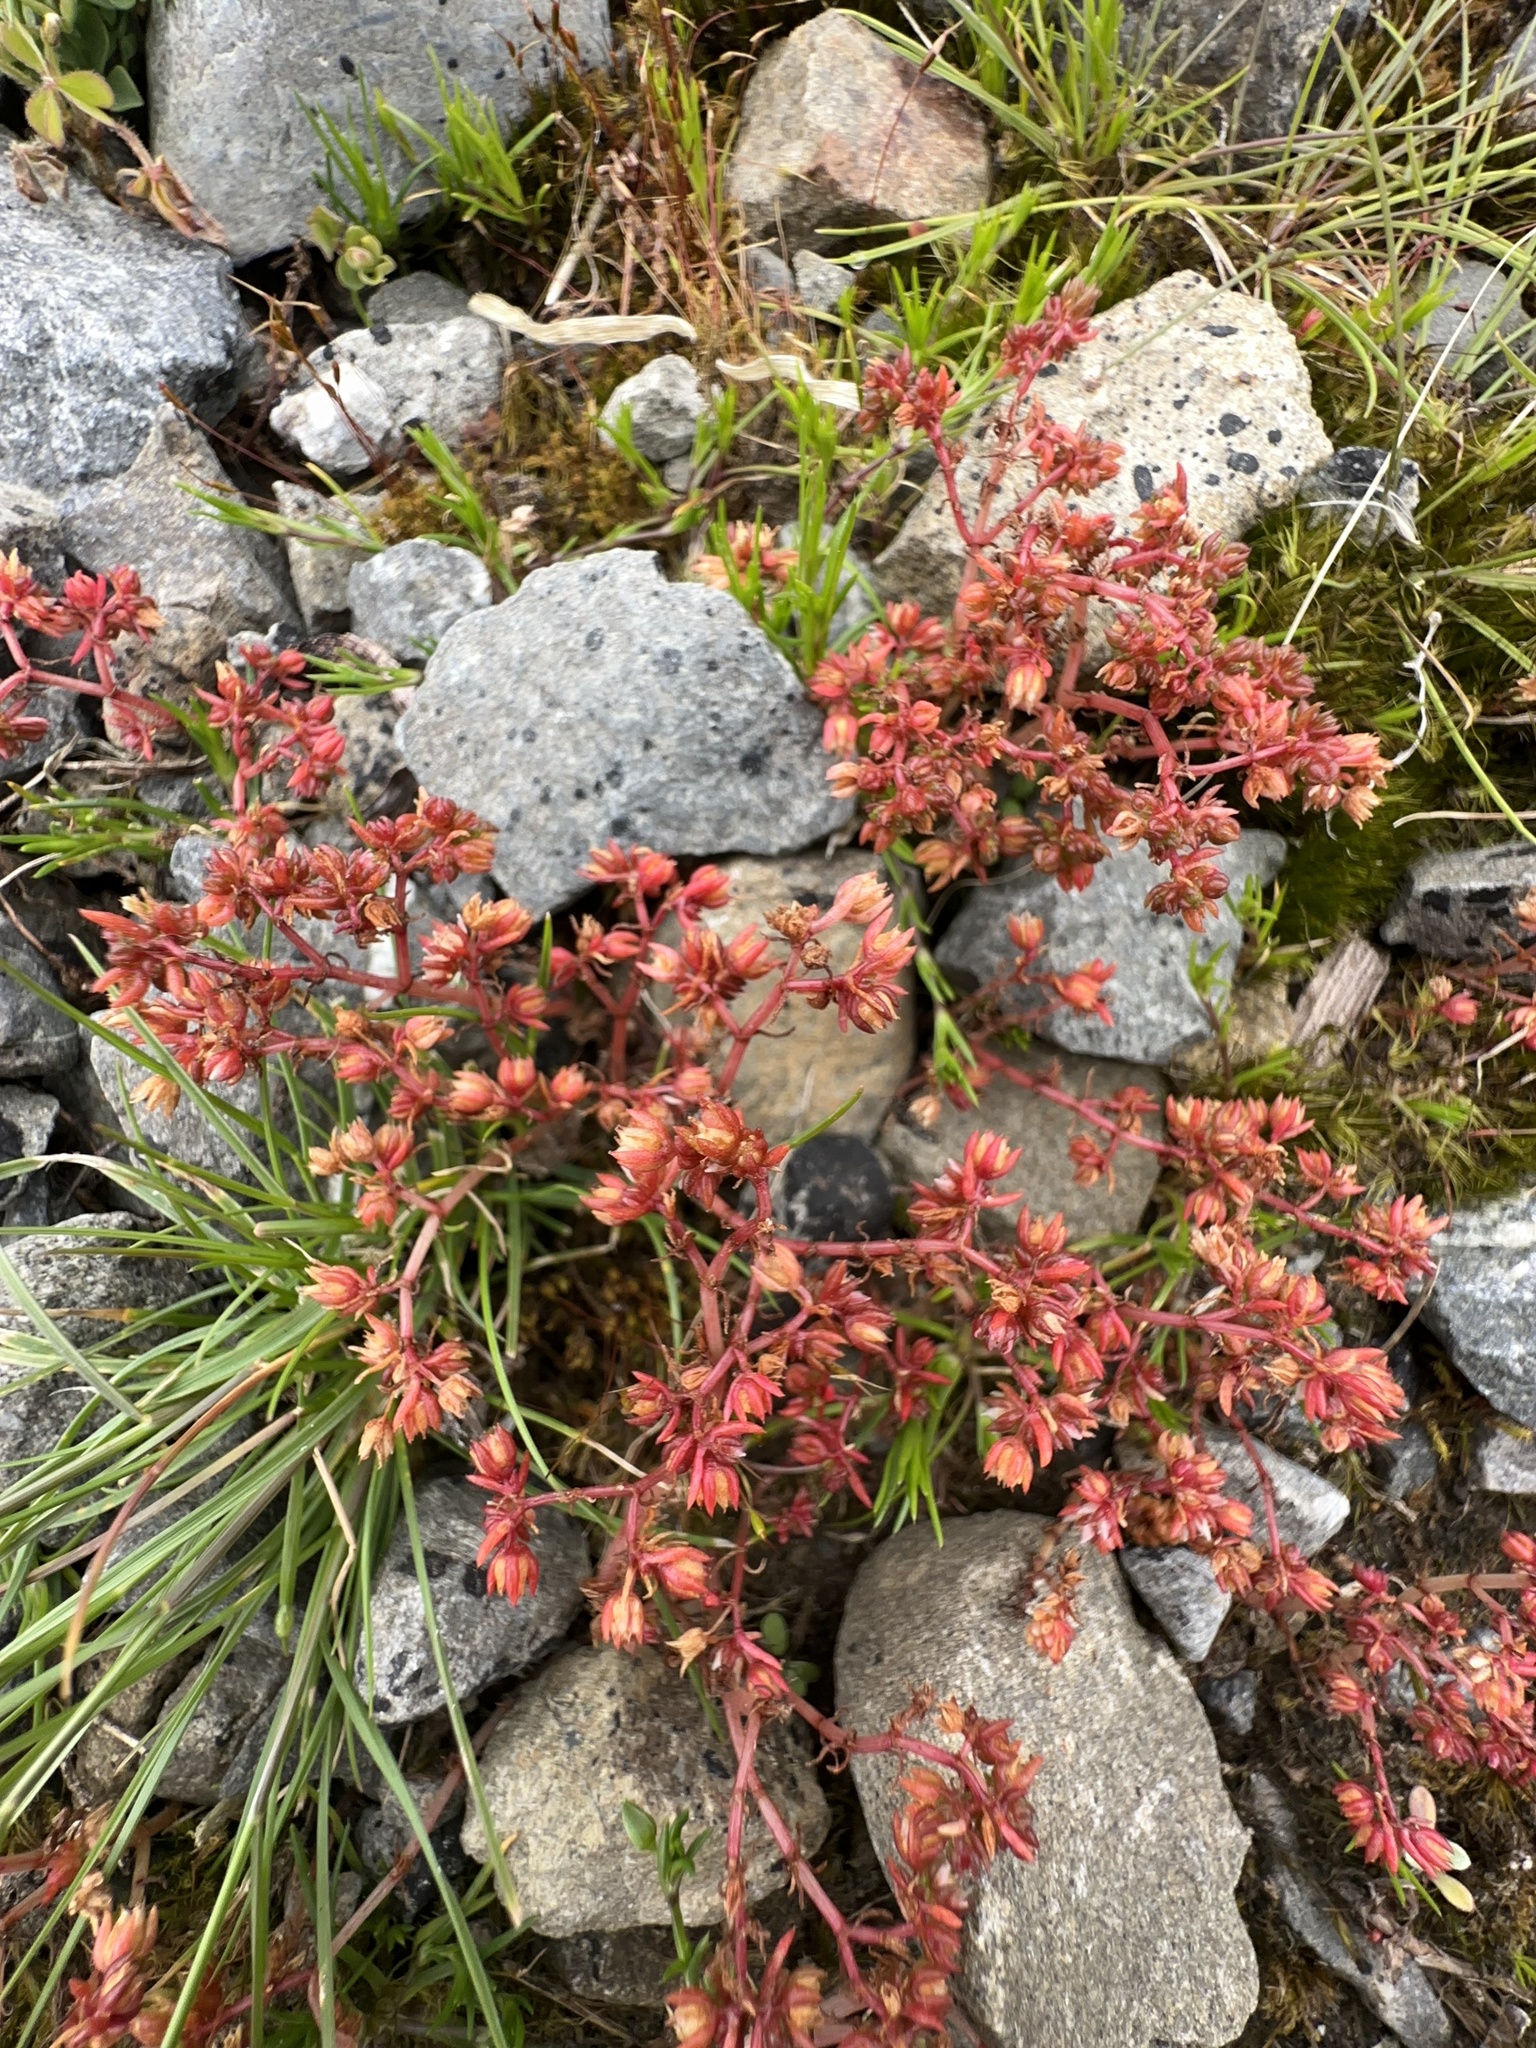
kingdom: Plantae
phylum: Tracheophyta
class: Magnoliopsida
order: Saxifragales
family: Crassulaceae
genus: Crassula
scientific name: Crassula decumbens
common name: Scilly pigmyweed
